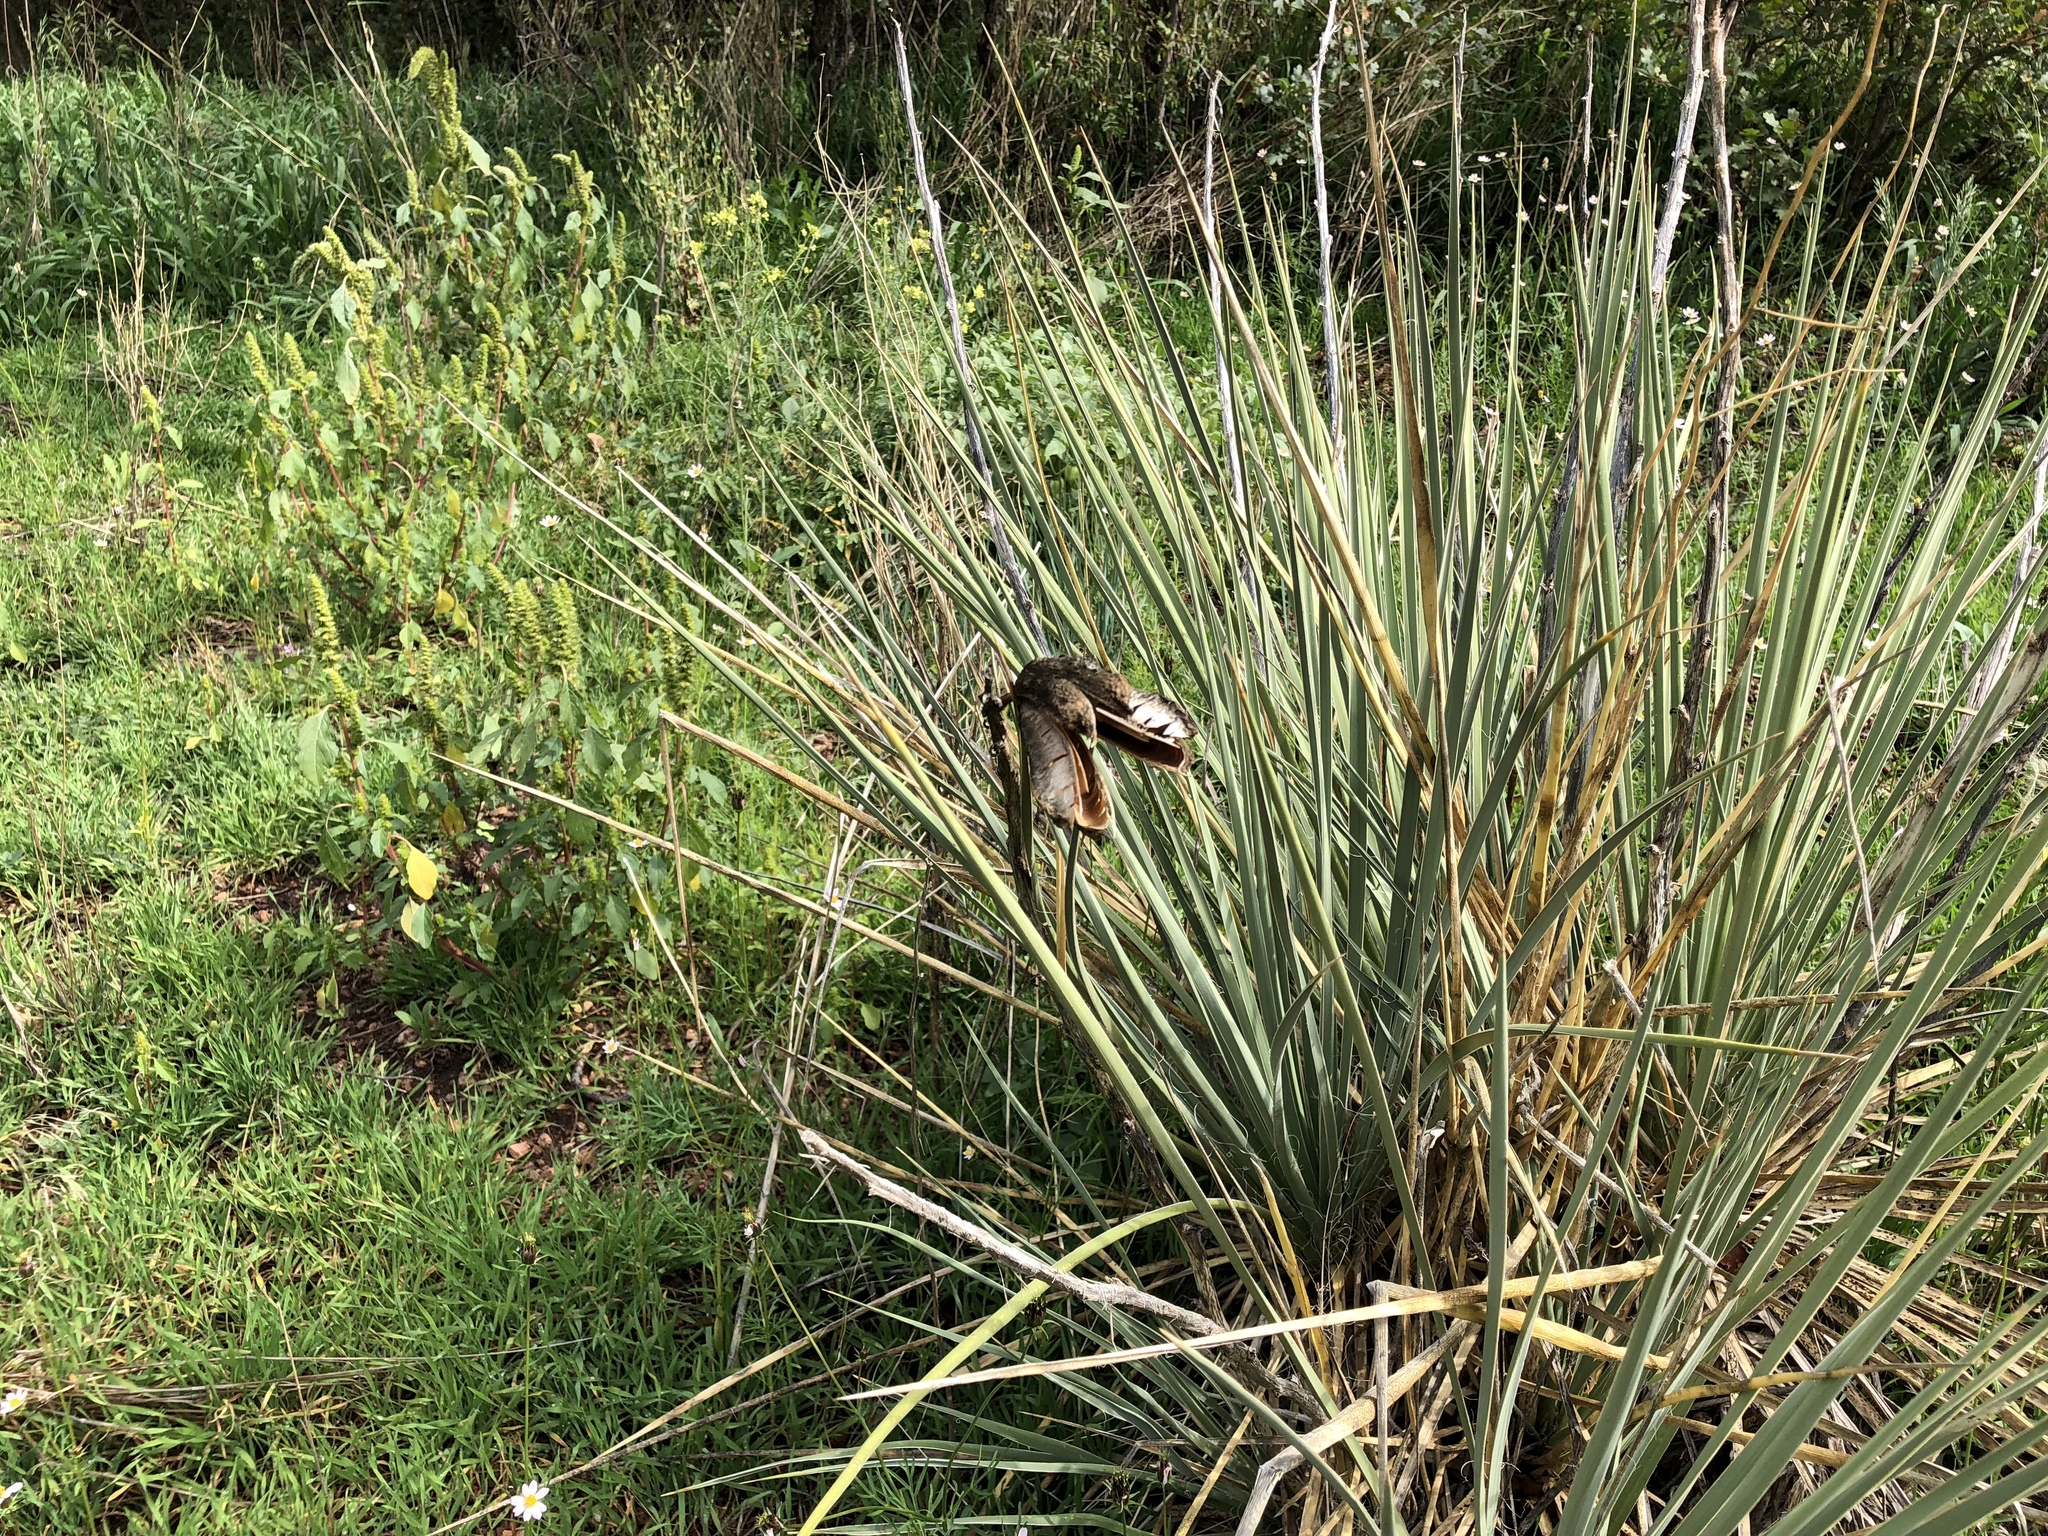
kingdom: Plantae
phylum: Tracheophyta
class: Liliopsida
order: Asparagales
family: Asparagaceae
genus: Yucca
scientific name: Yucca glauca
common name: Great plains yucca
